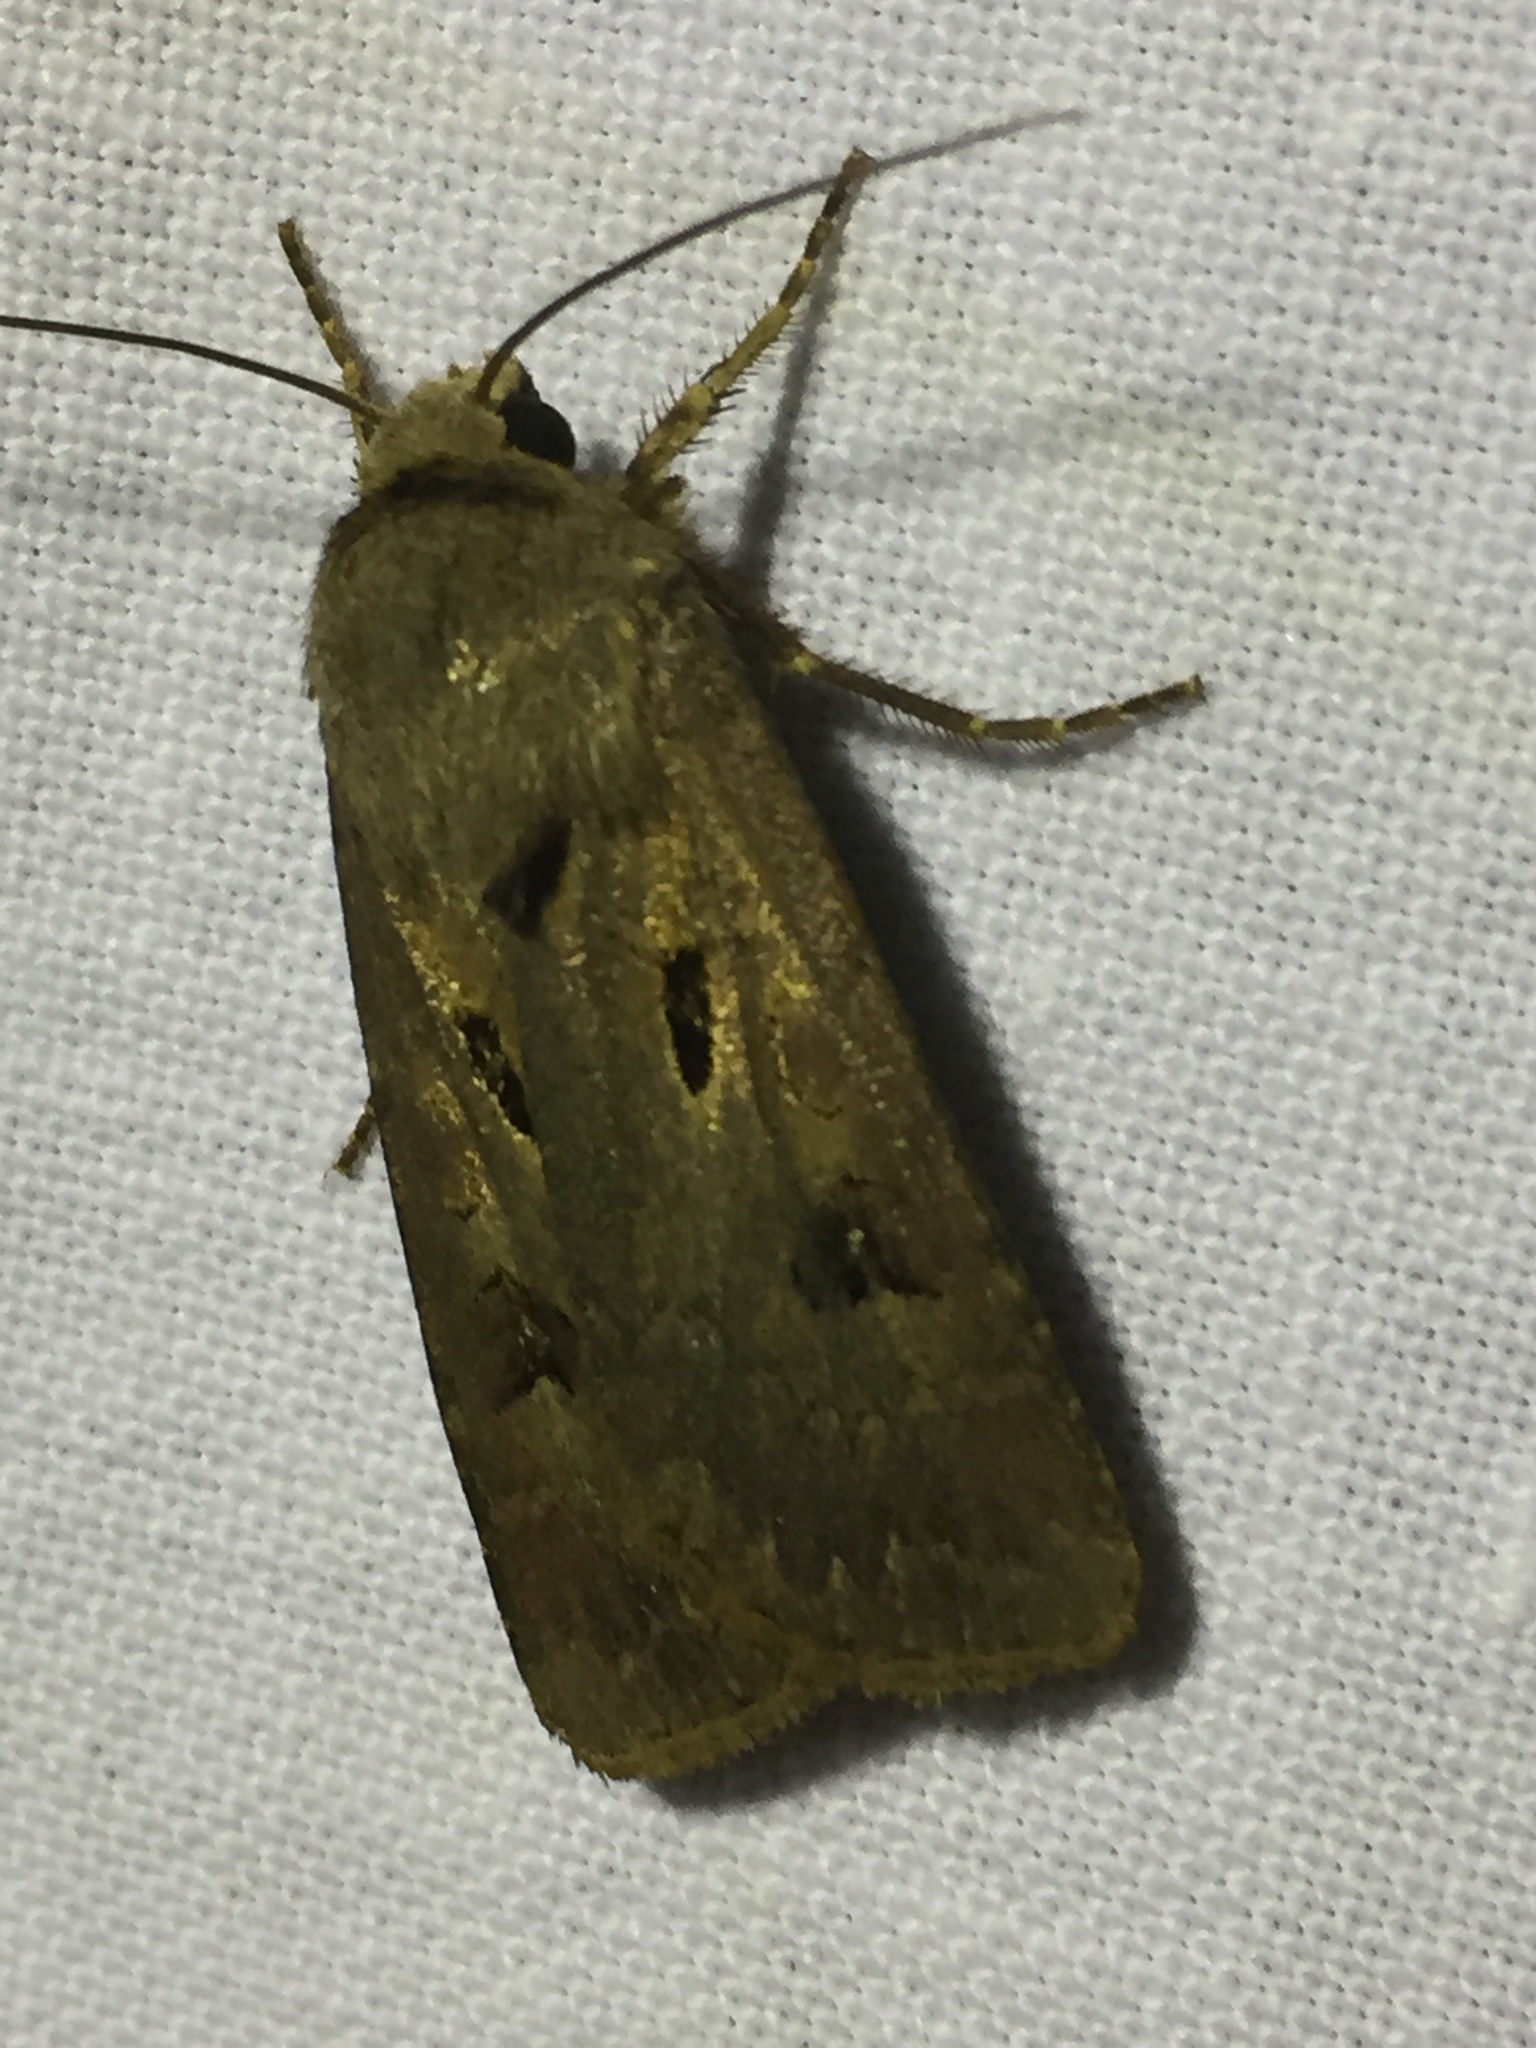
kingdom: Animalia
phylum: Arthropoda
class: Insecta
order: Lepidoptera
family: Noctuidae
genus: Agrotis
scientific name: Agrotis exclamationis
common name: Heart and dart
